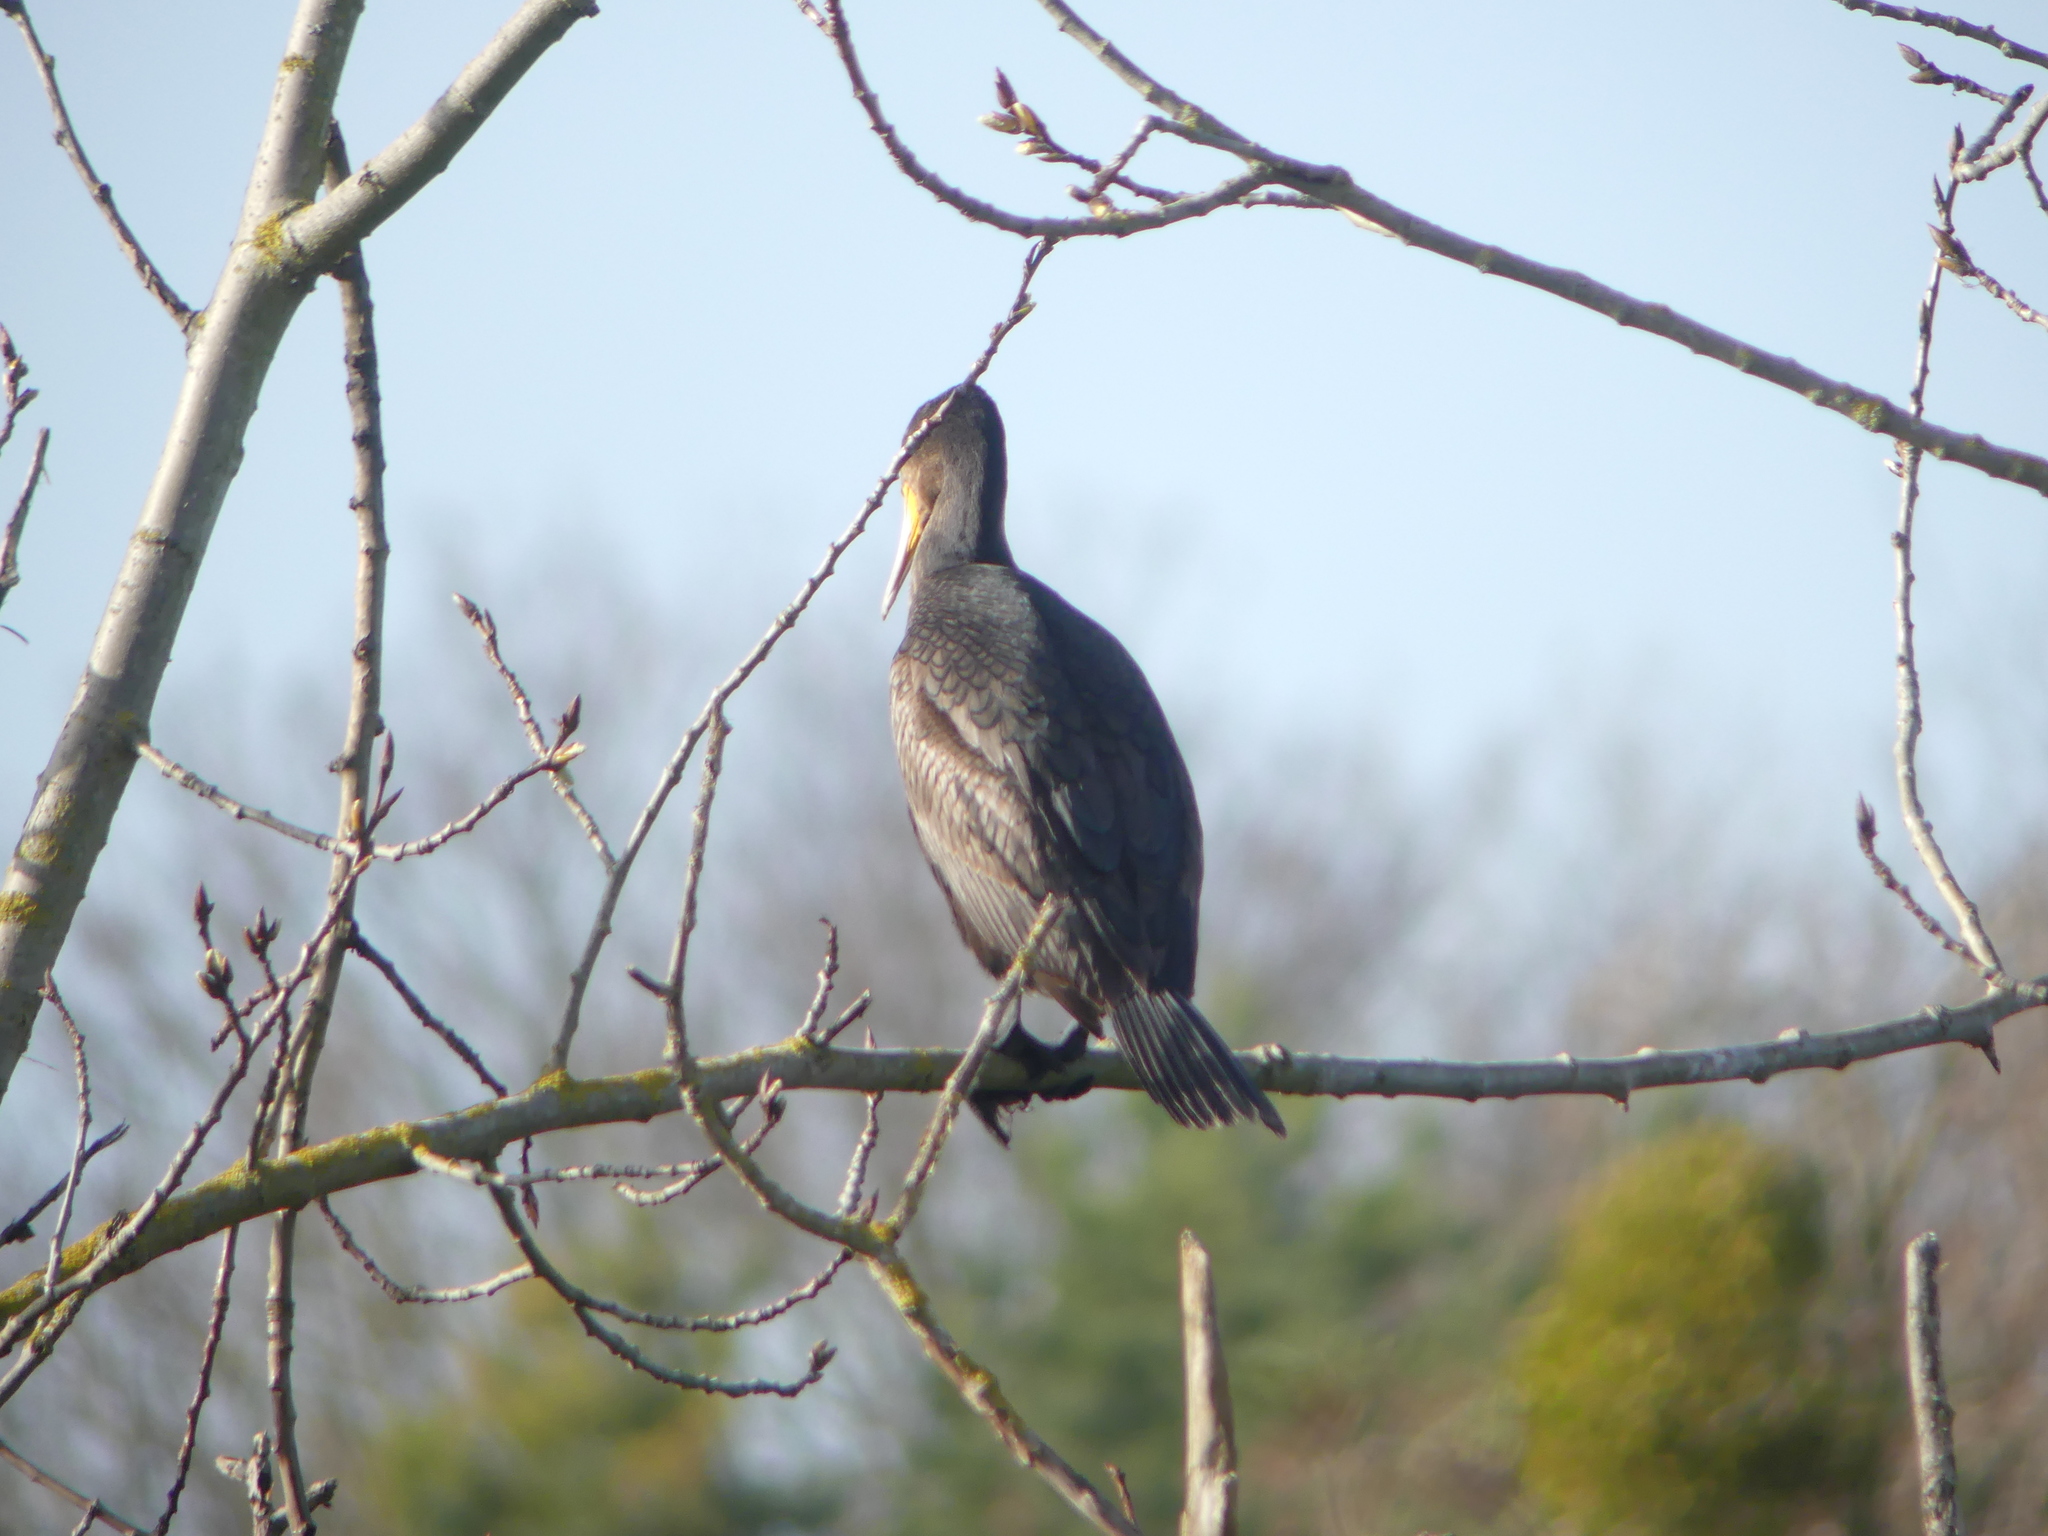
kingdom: Animalia
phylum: Chordata
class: Aves
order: Suliformes
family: Phalacrocoracidae
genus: Phalacrocorax
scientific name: Phalacrocorax carbo
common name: Great cormorant
